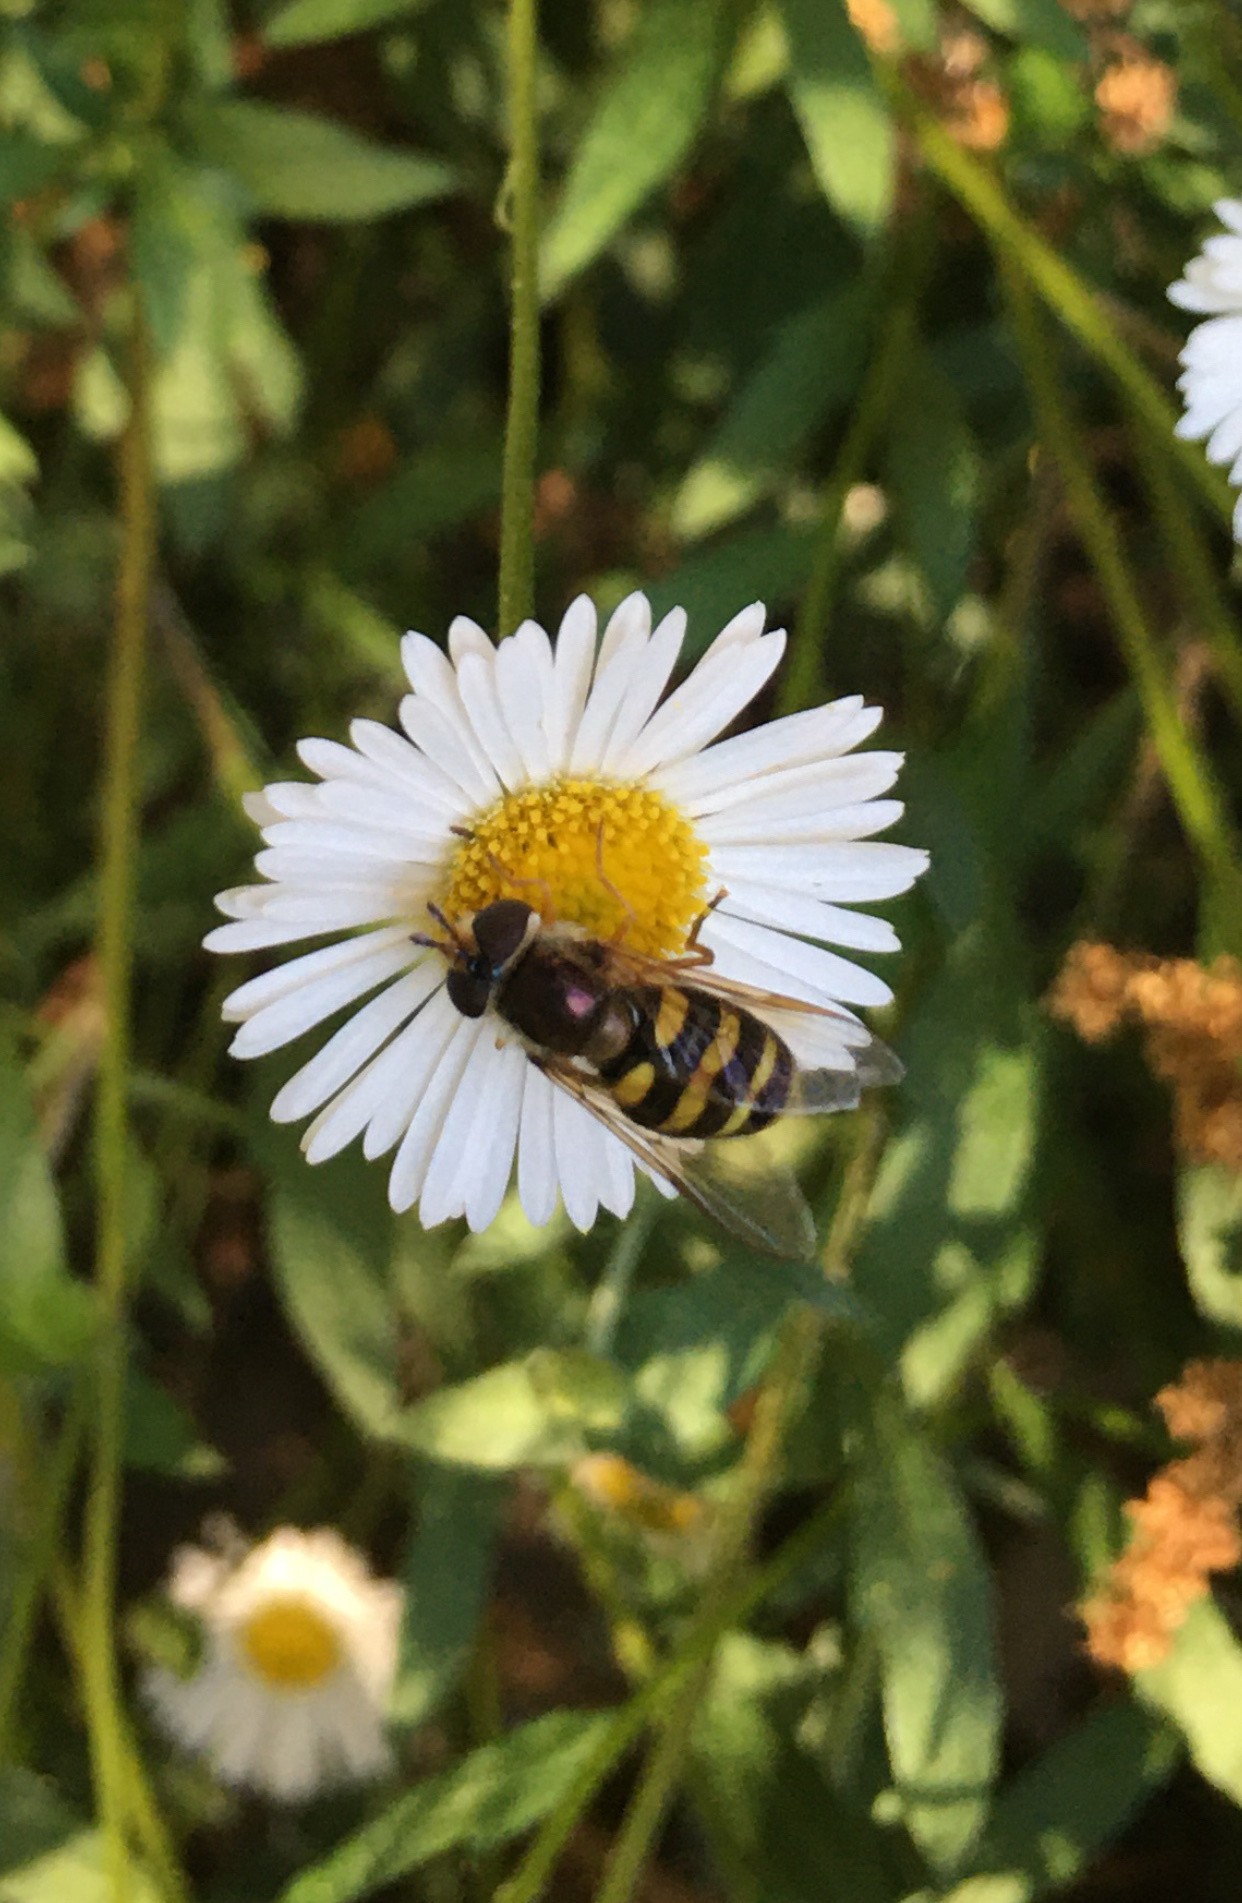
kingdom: Animalia
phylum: Arthropoda
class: Insecta
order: Diptera
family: Syrphidae
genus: Eupeodes
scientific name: Eupeodes fumipennis
